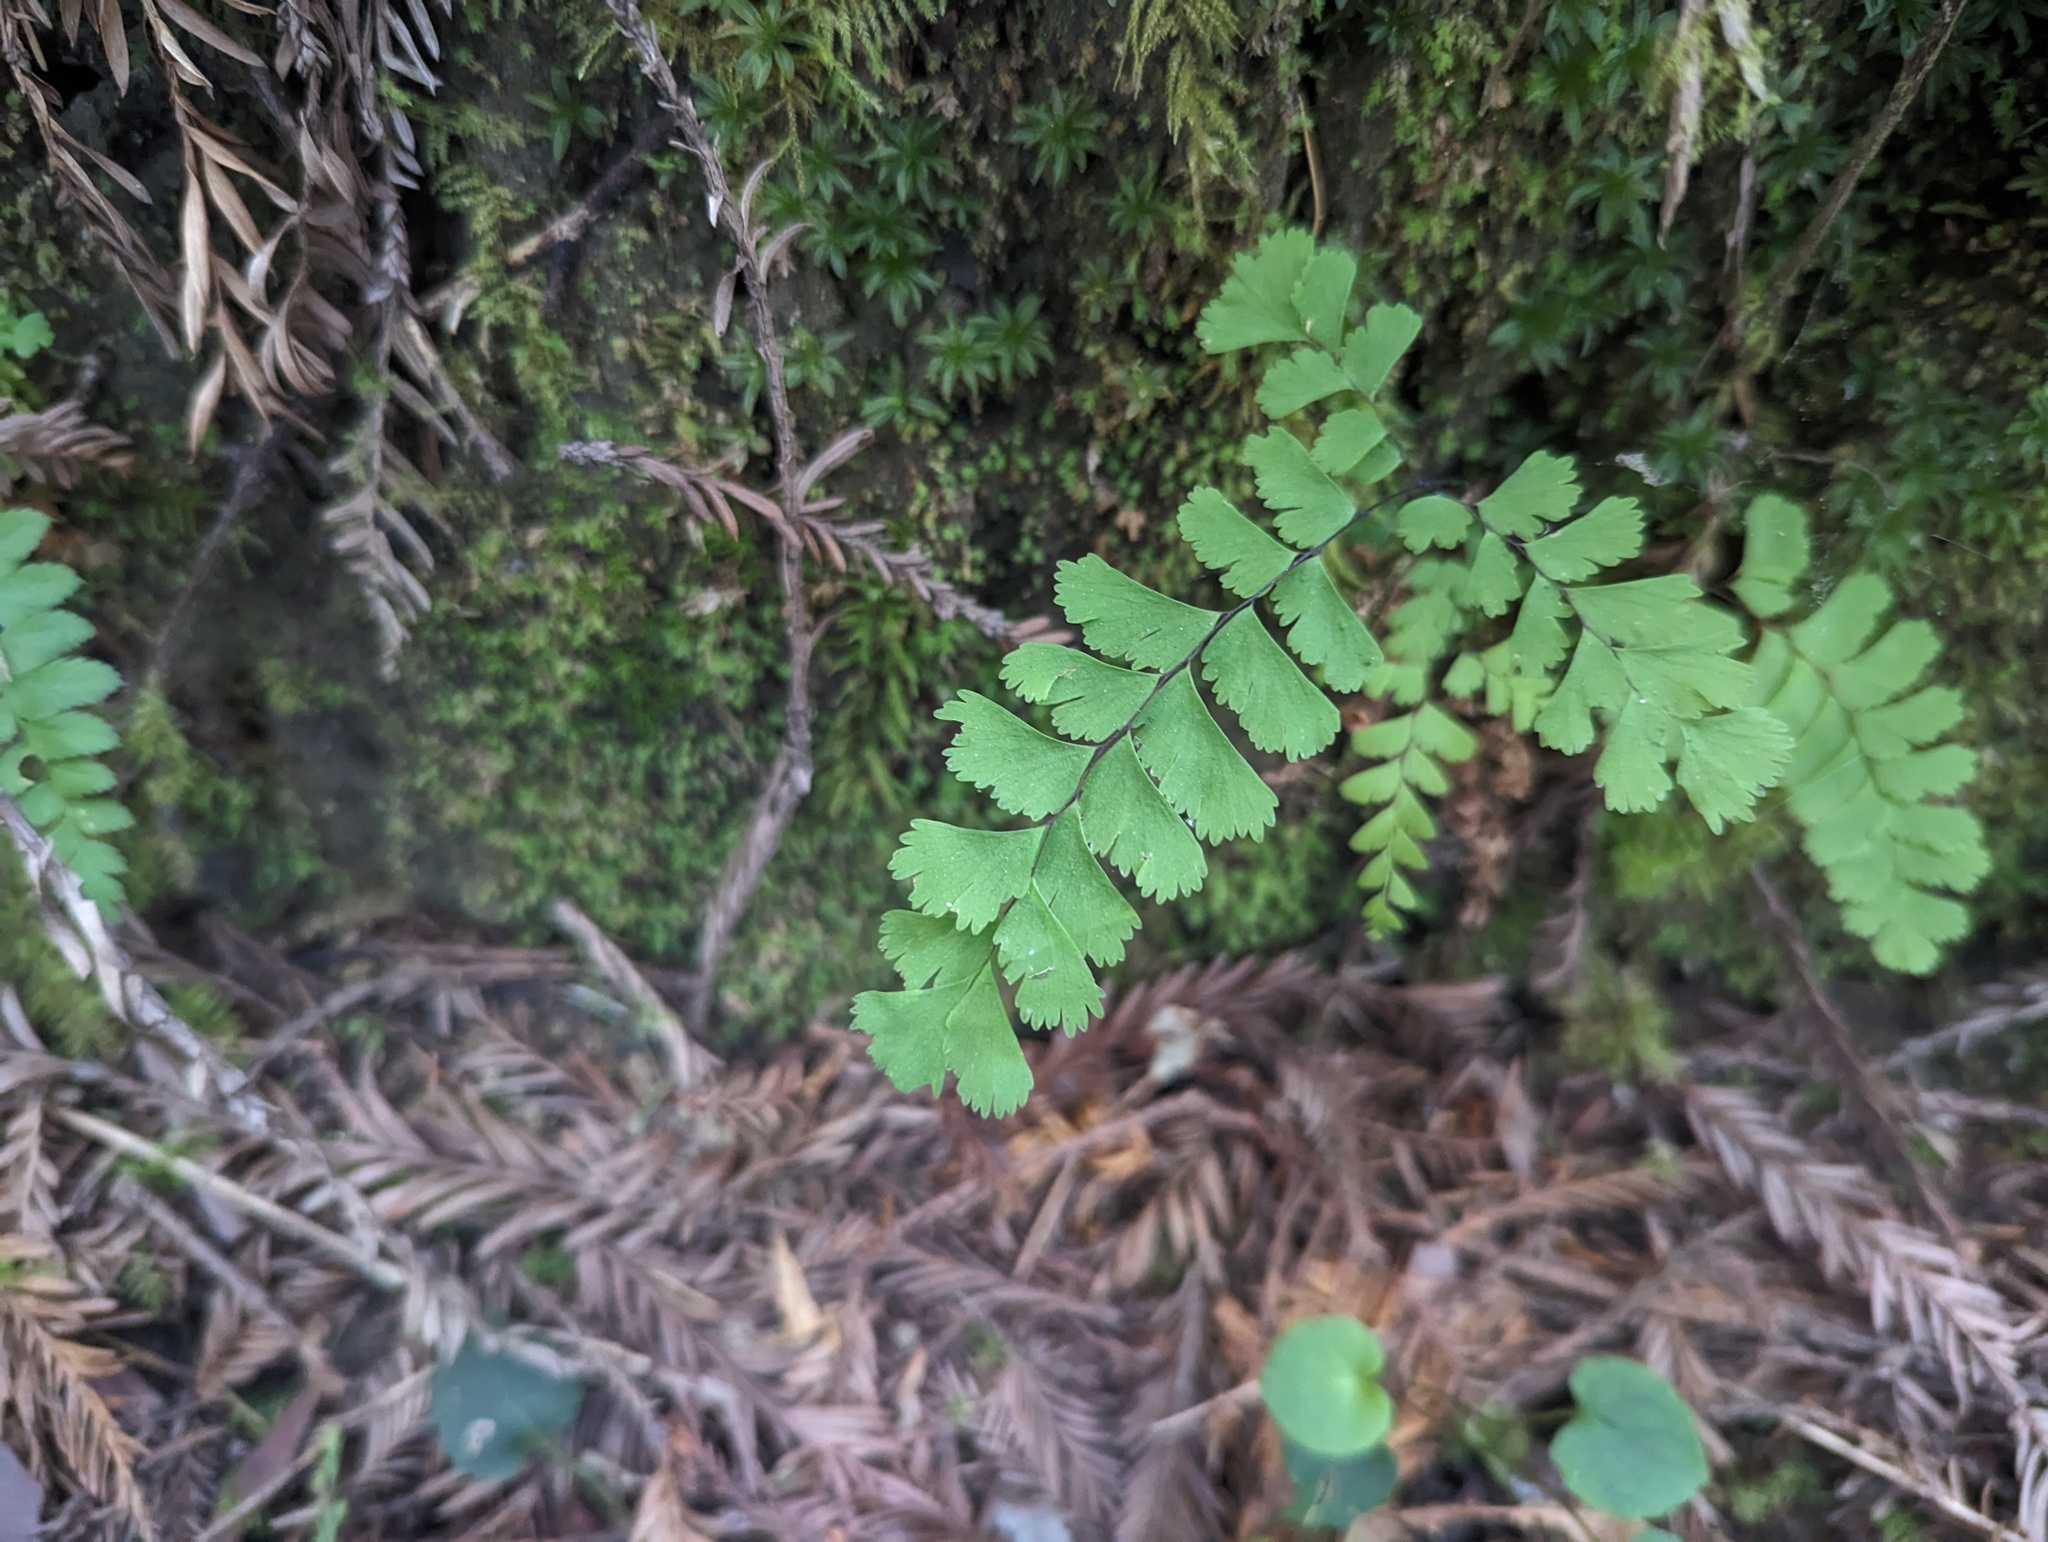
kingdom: Plantae
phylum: Tracheophyta
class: Polypodiopsida
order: Polypodiales
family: Pteridaceae
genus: Adiantum
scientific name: Adiantum aleuticum
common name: Aleutian maidenhair fern
